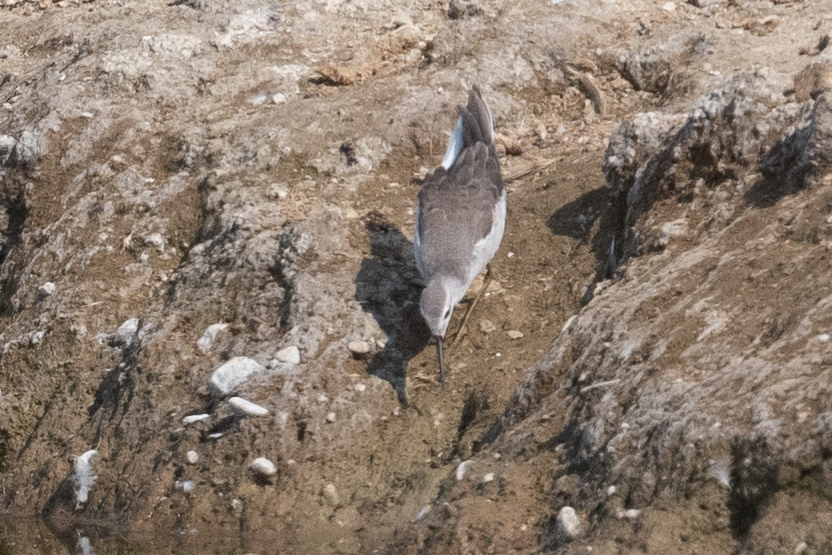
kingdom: Animalia
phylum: Chordata
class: Aves
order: Charadriiformes
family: Scolopacidae
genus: Phalaropus
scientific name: Phalaropus tricolor
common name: Wilson's phalarope
